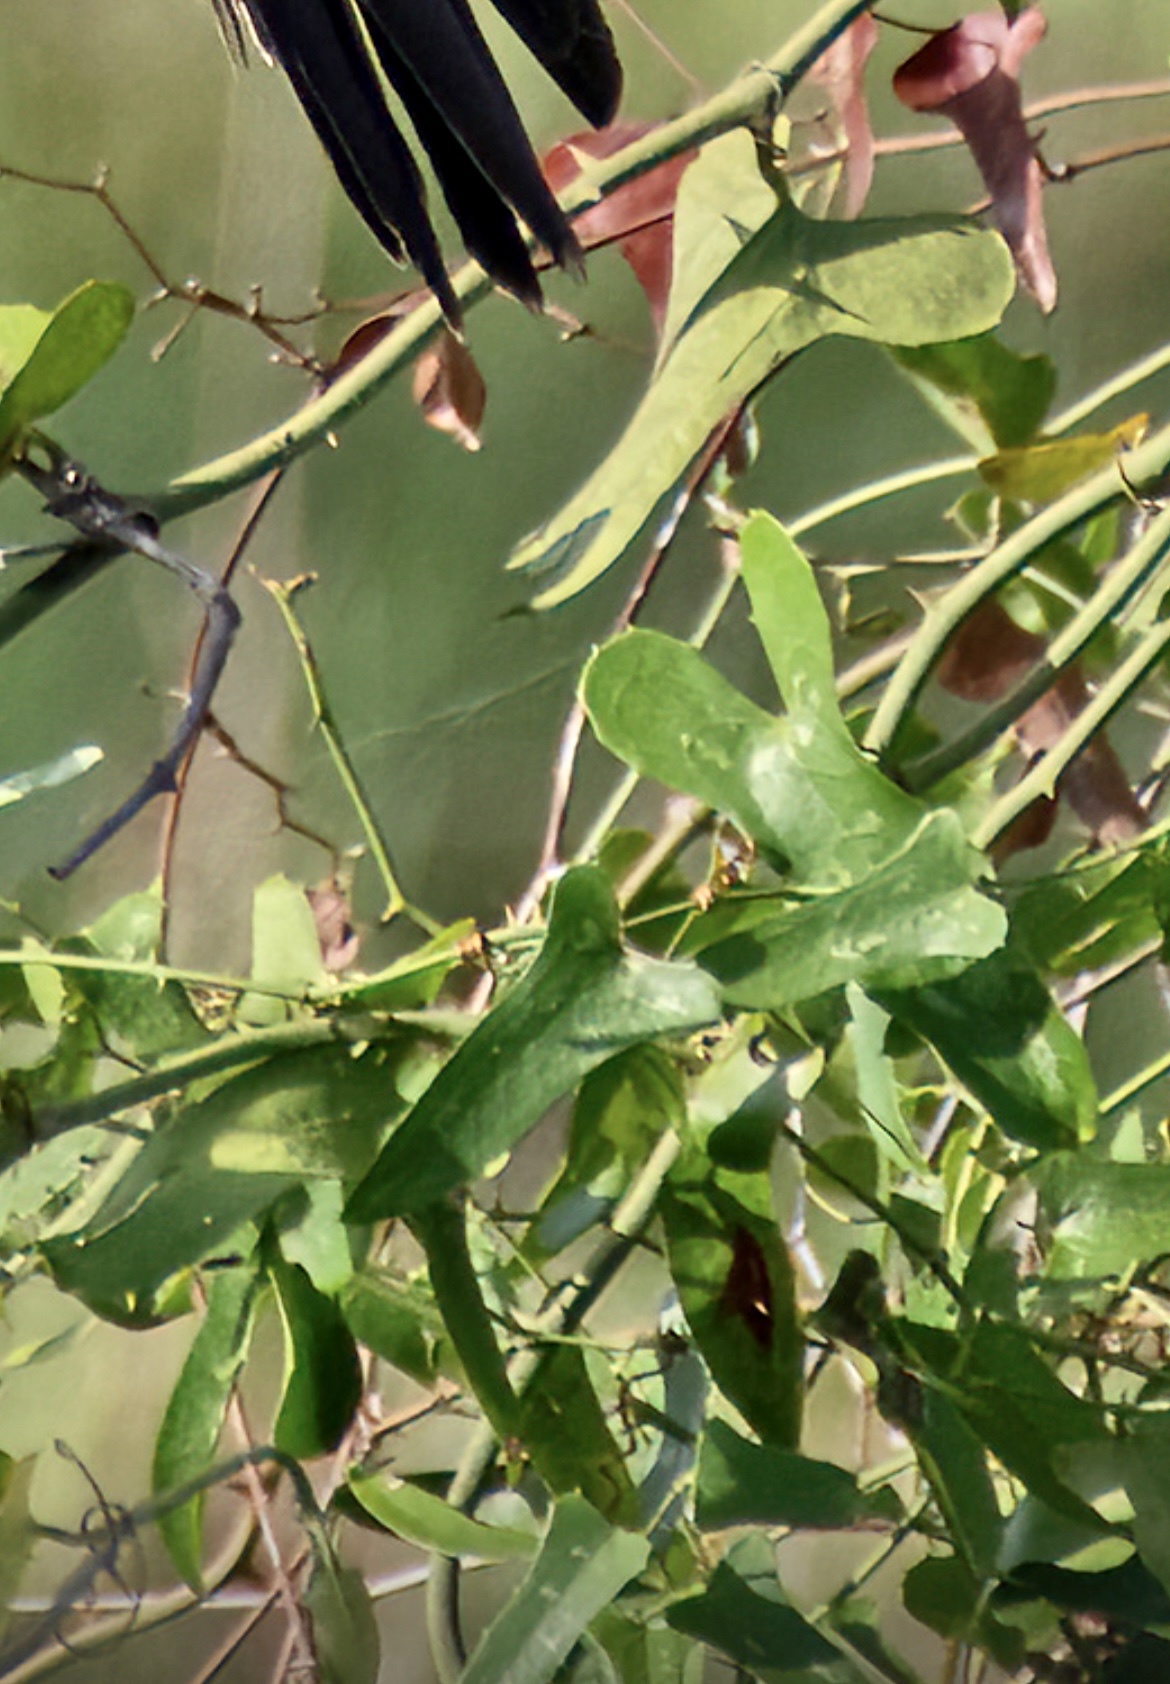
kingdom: Plantae
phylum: Tracheophyta
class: Liliopsida
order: Liliales
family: Smilacaceae
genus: Smilax
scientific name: Smilax bona-nox
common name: Catbrier
